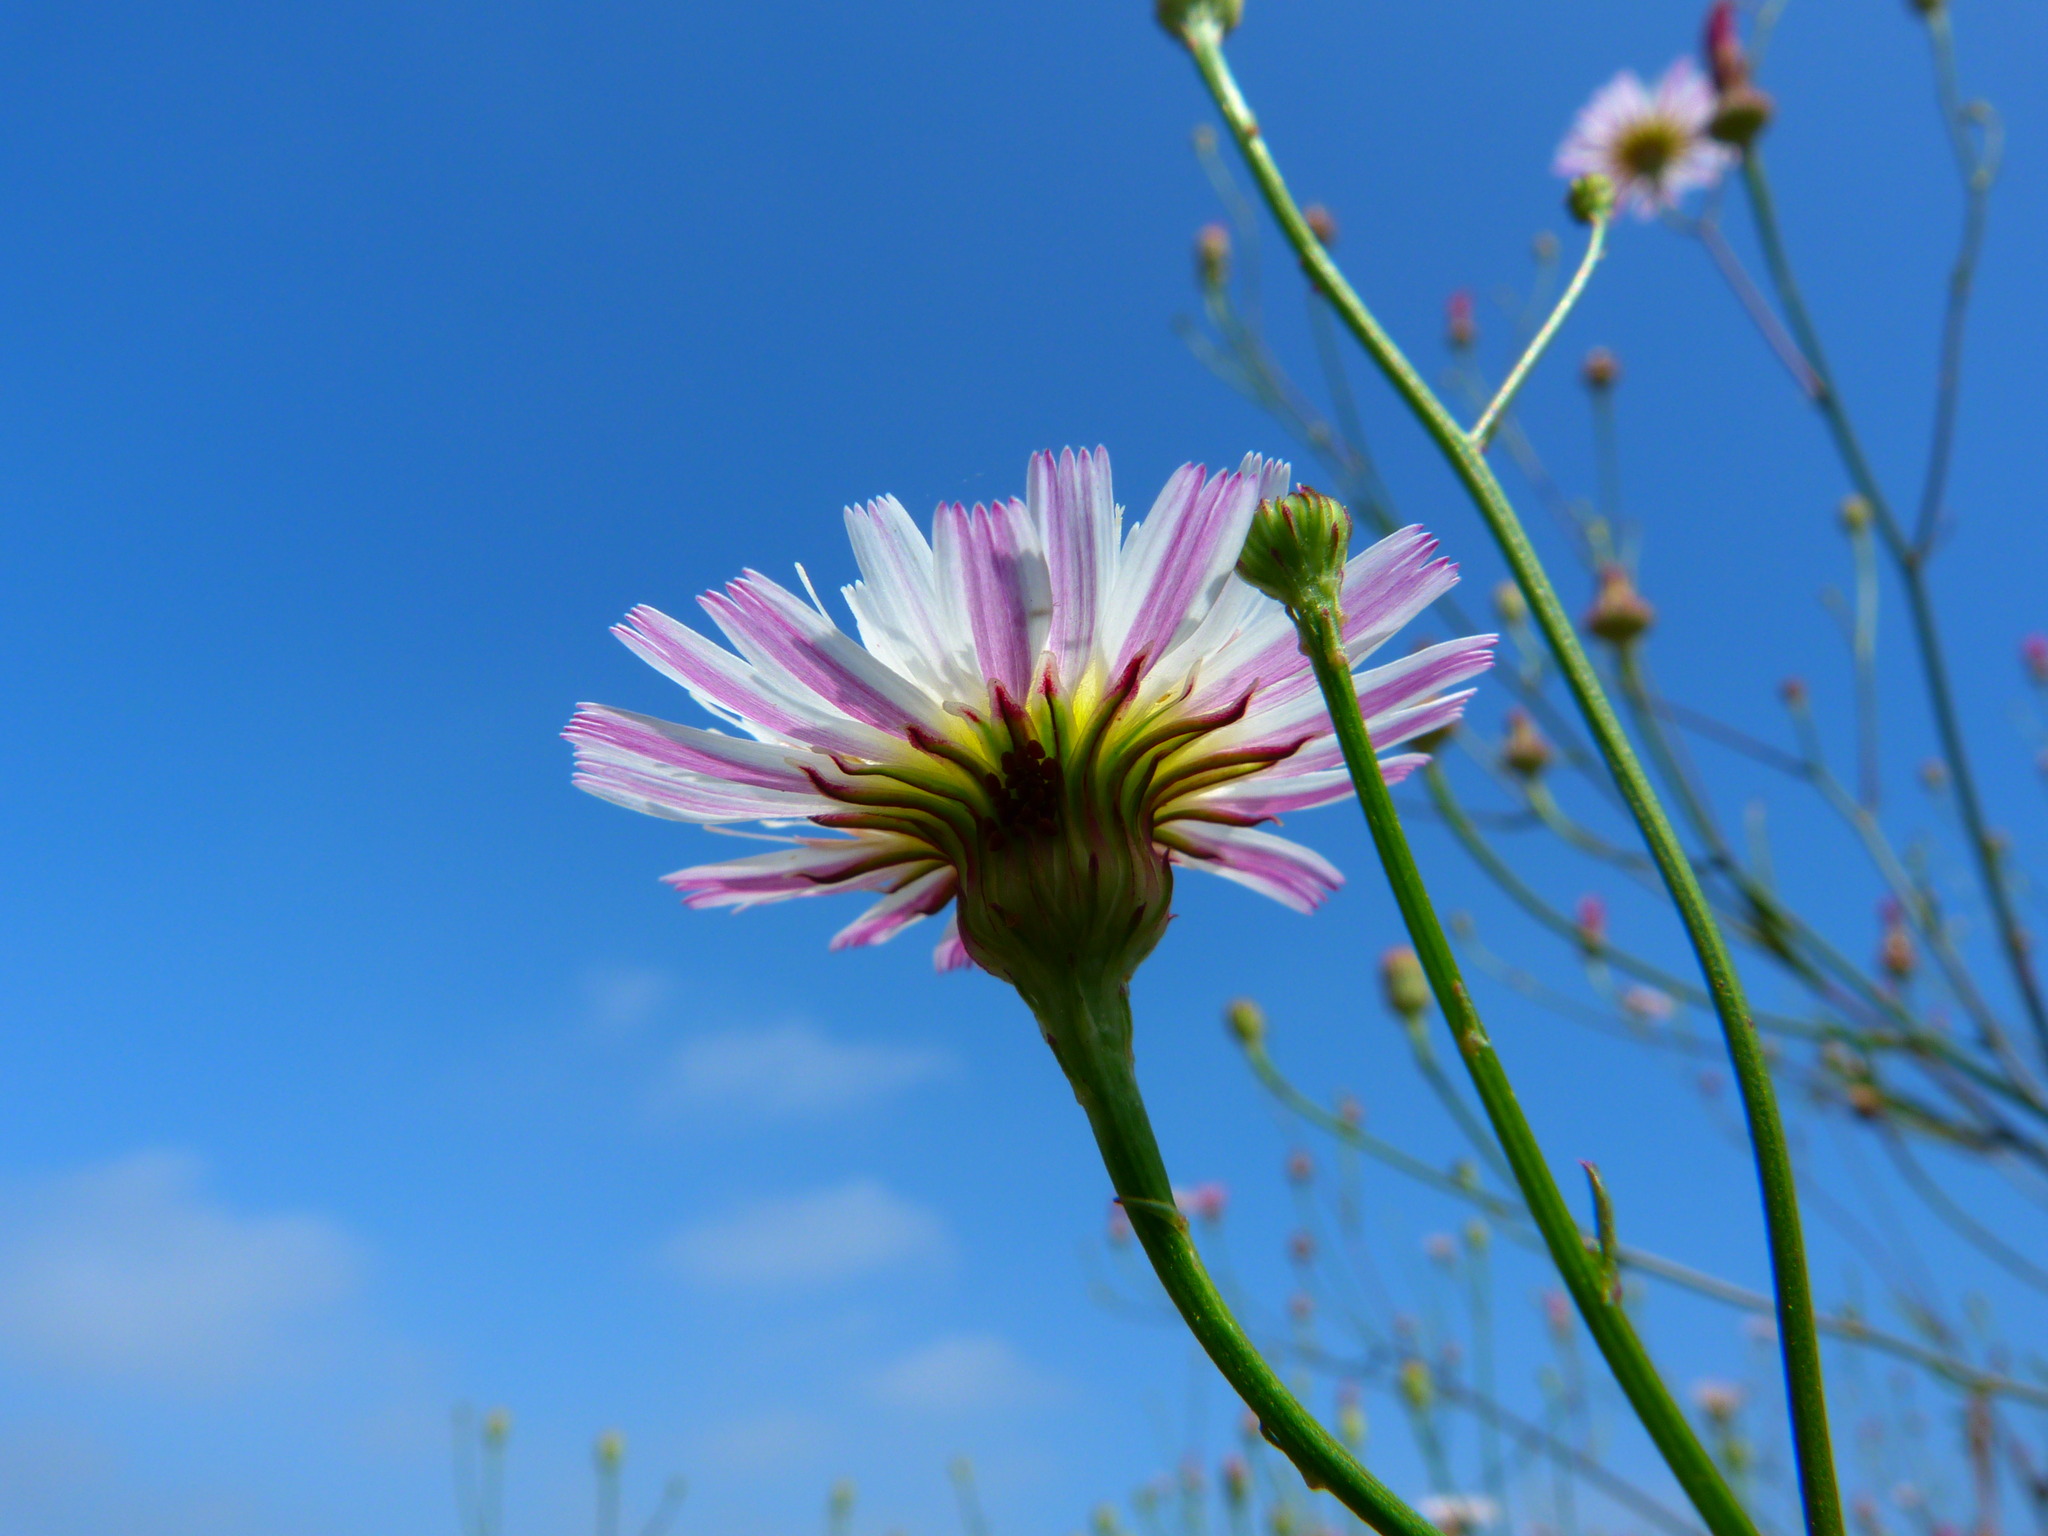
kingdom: Plantae
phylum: Tracheophyta
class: Magnoliopsida
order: Asterales
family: Asteraceae
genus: Malacothrix
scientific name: Malacothrix saxatilis
